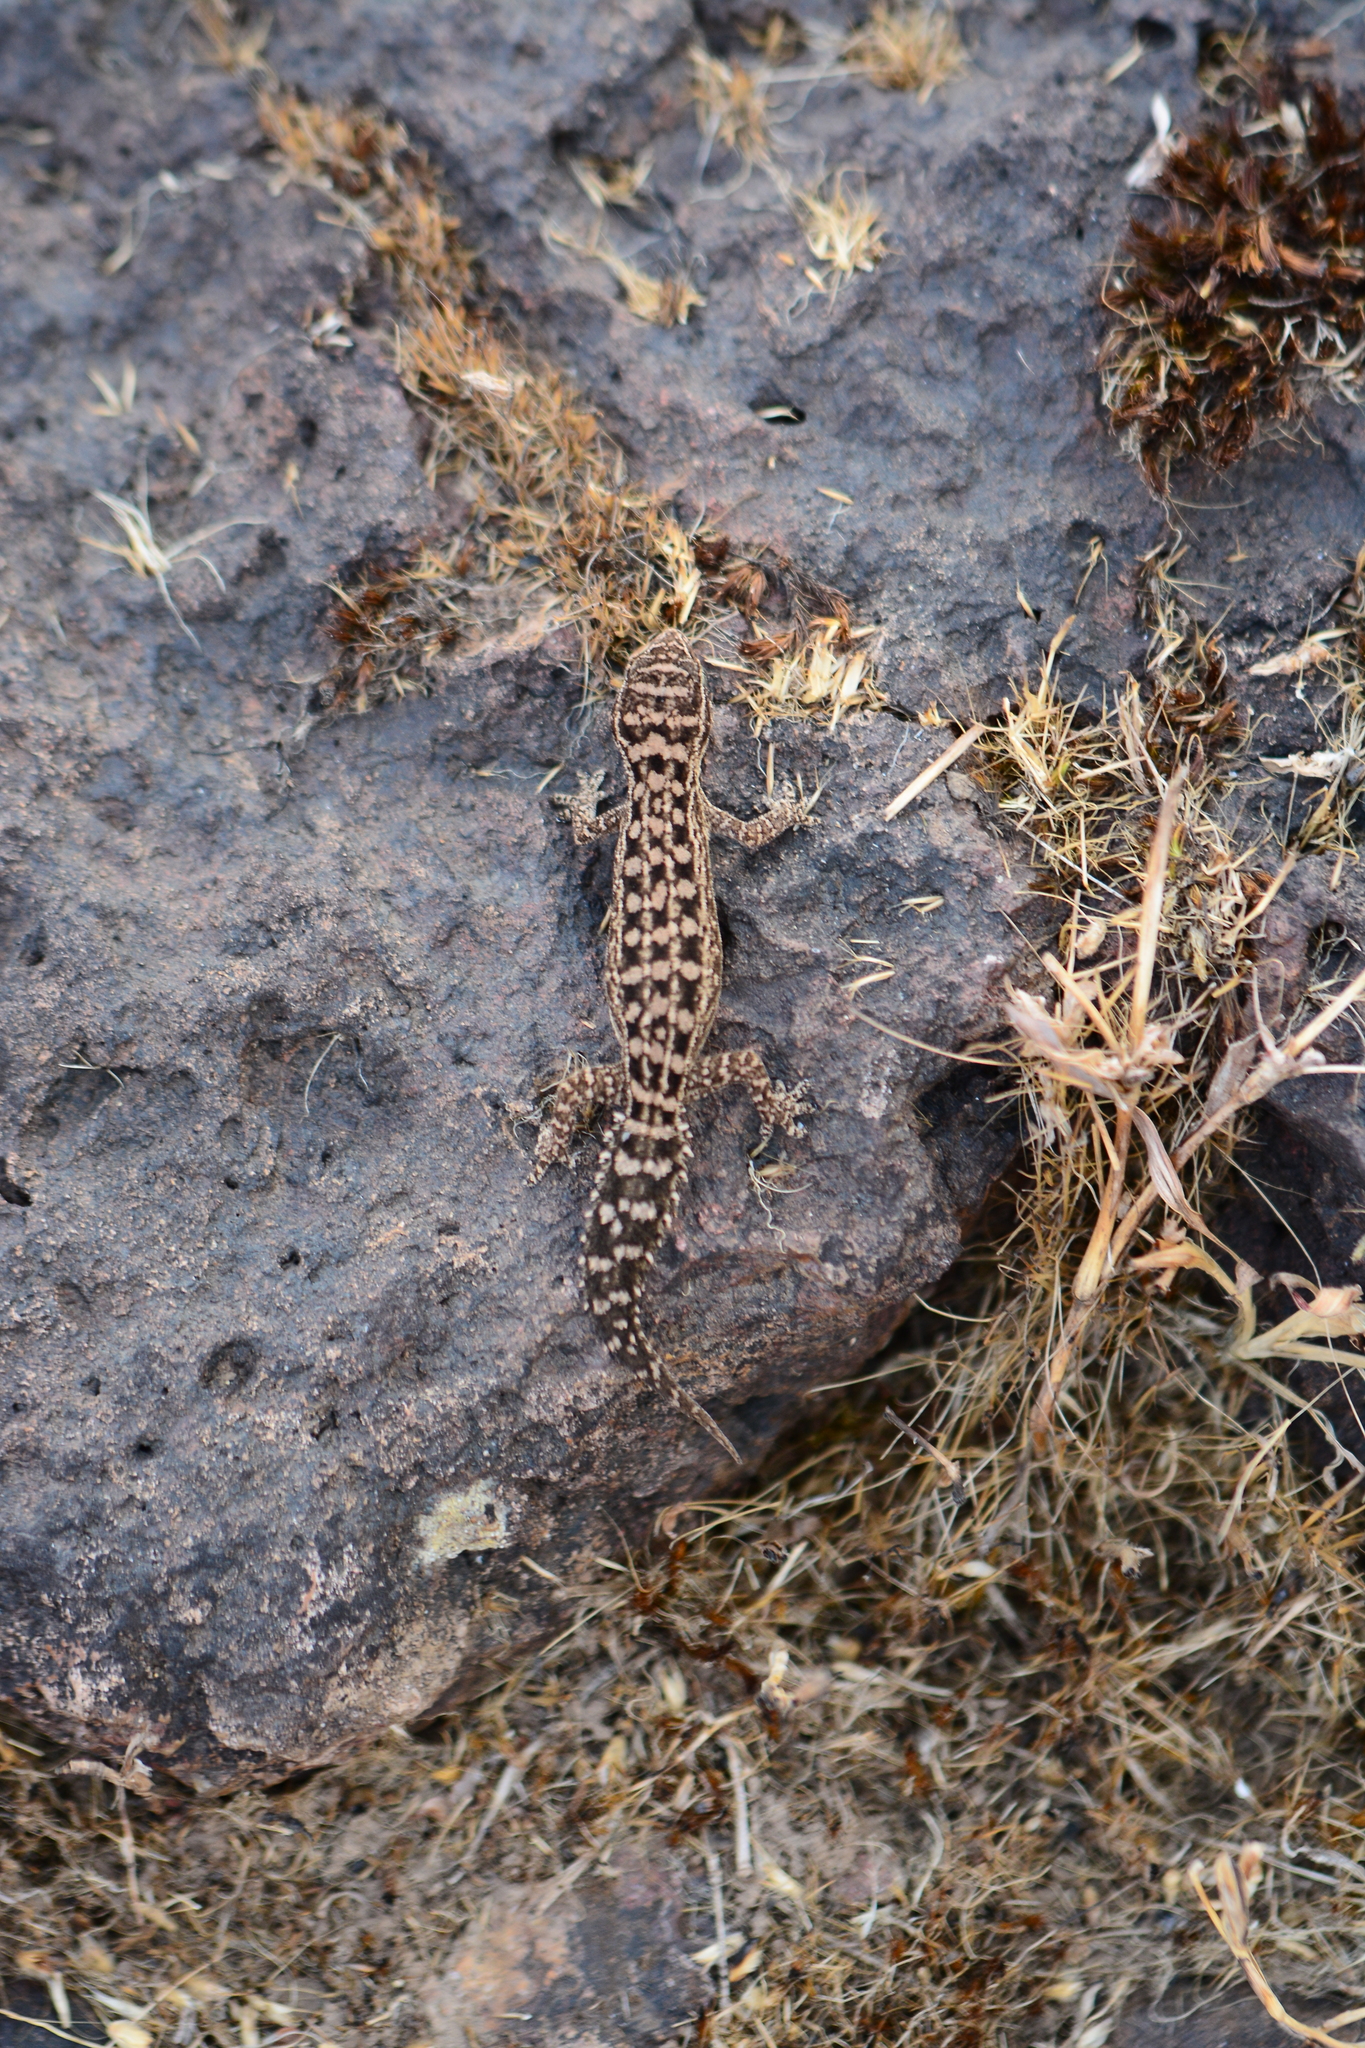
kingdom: Animalia
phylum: Chordata
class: Squamata
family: Gekkonidae
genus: Hemidactylus
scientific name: Hemidactylus sataraensis
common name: Satara gecko
